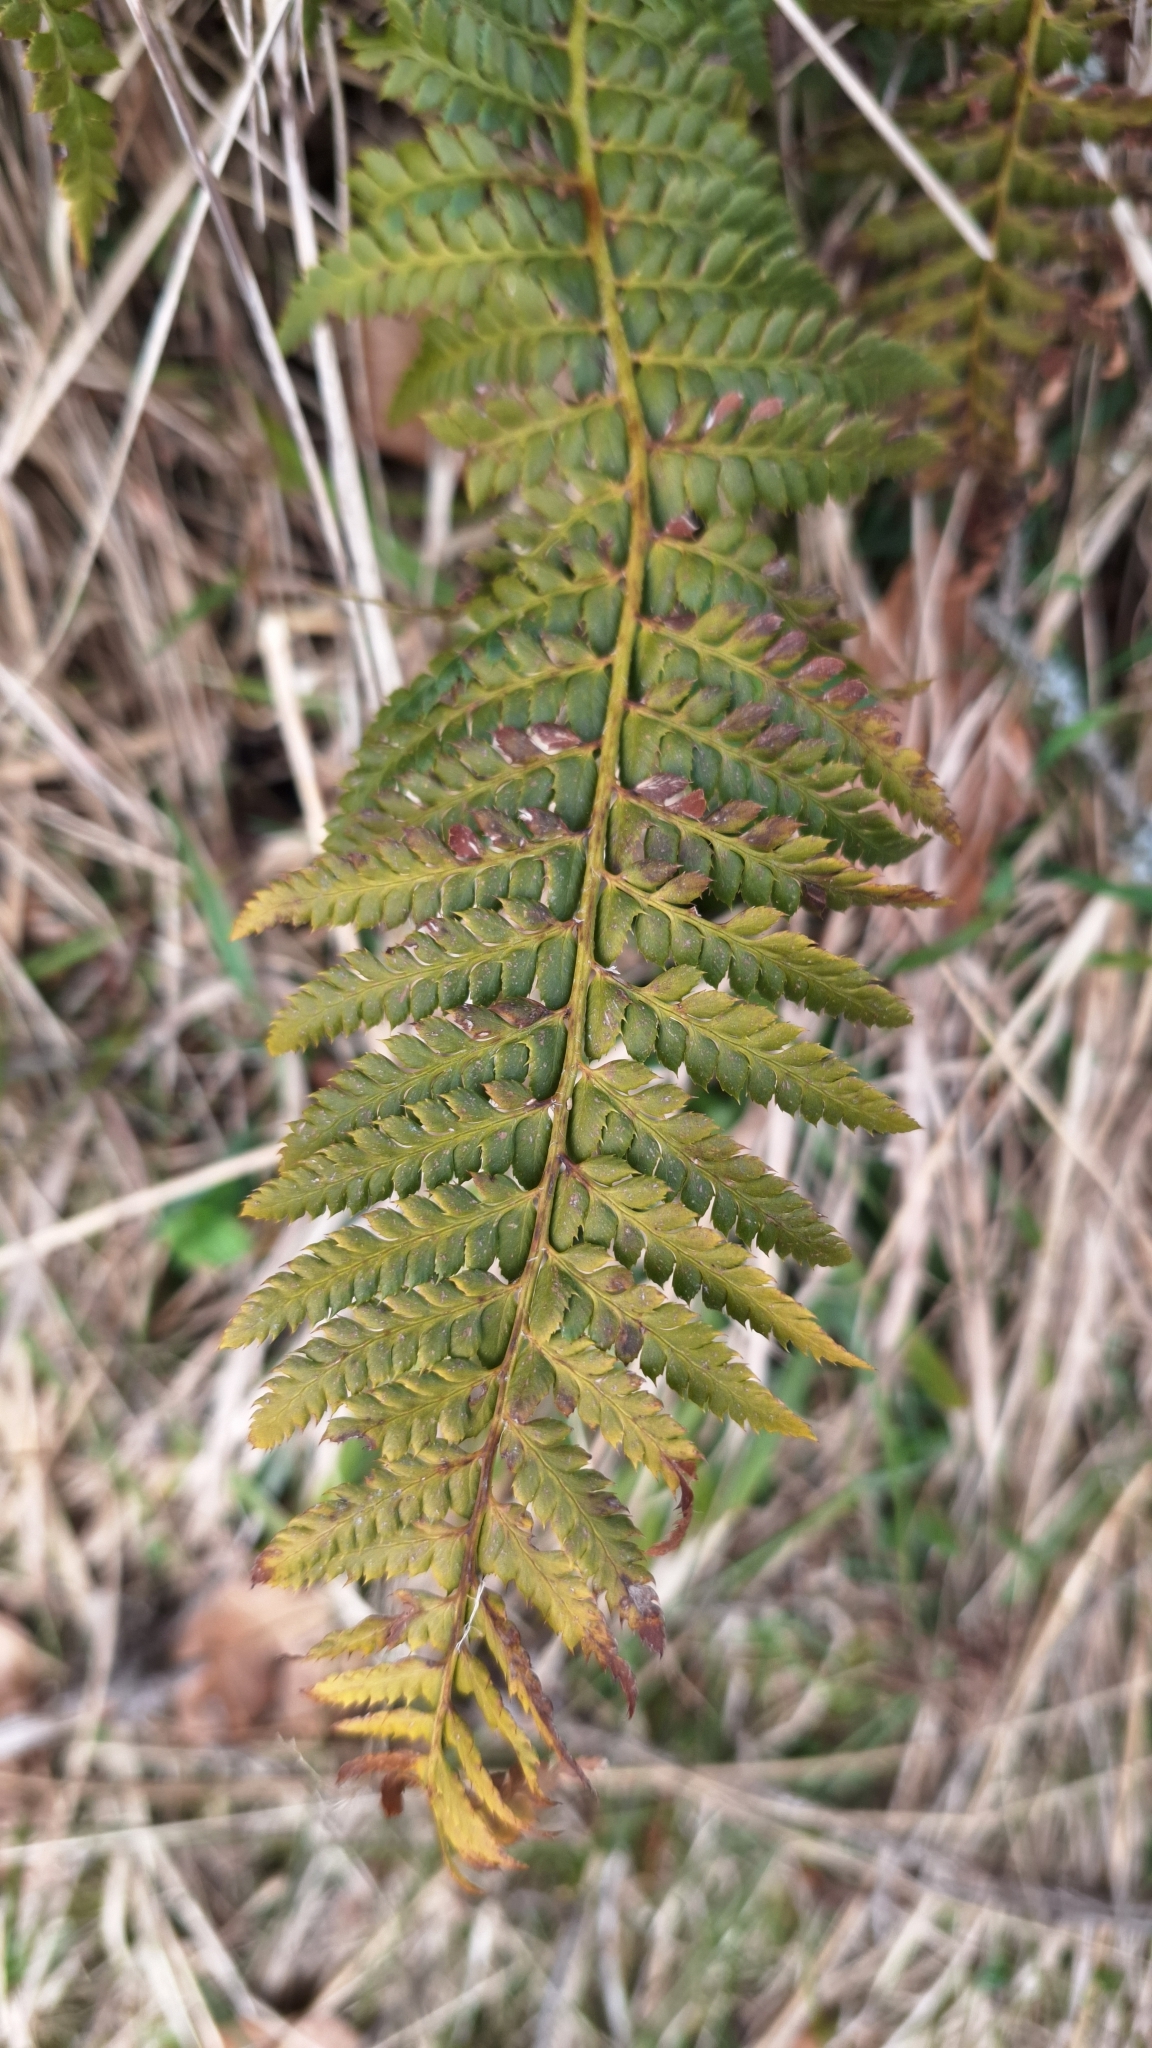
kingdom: Plantae
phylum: Tracheophyta
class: Polypodiopsida
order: Polypodiales
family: Dryopteridaceae
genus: Polystichum
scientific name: Polystichum aculeatum
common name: Hard shield-fern
